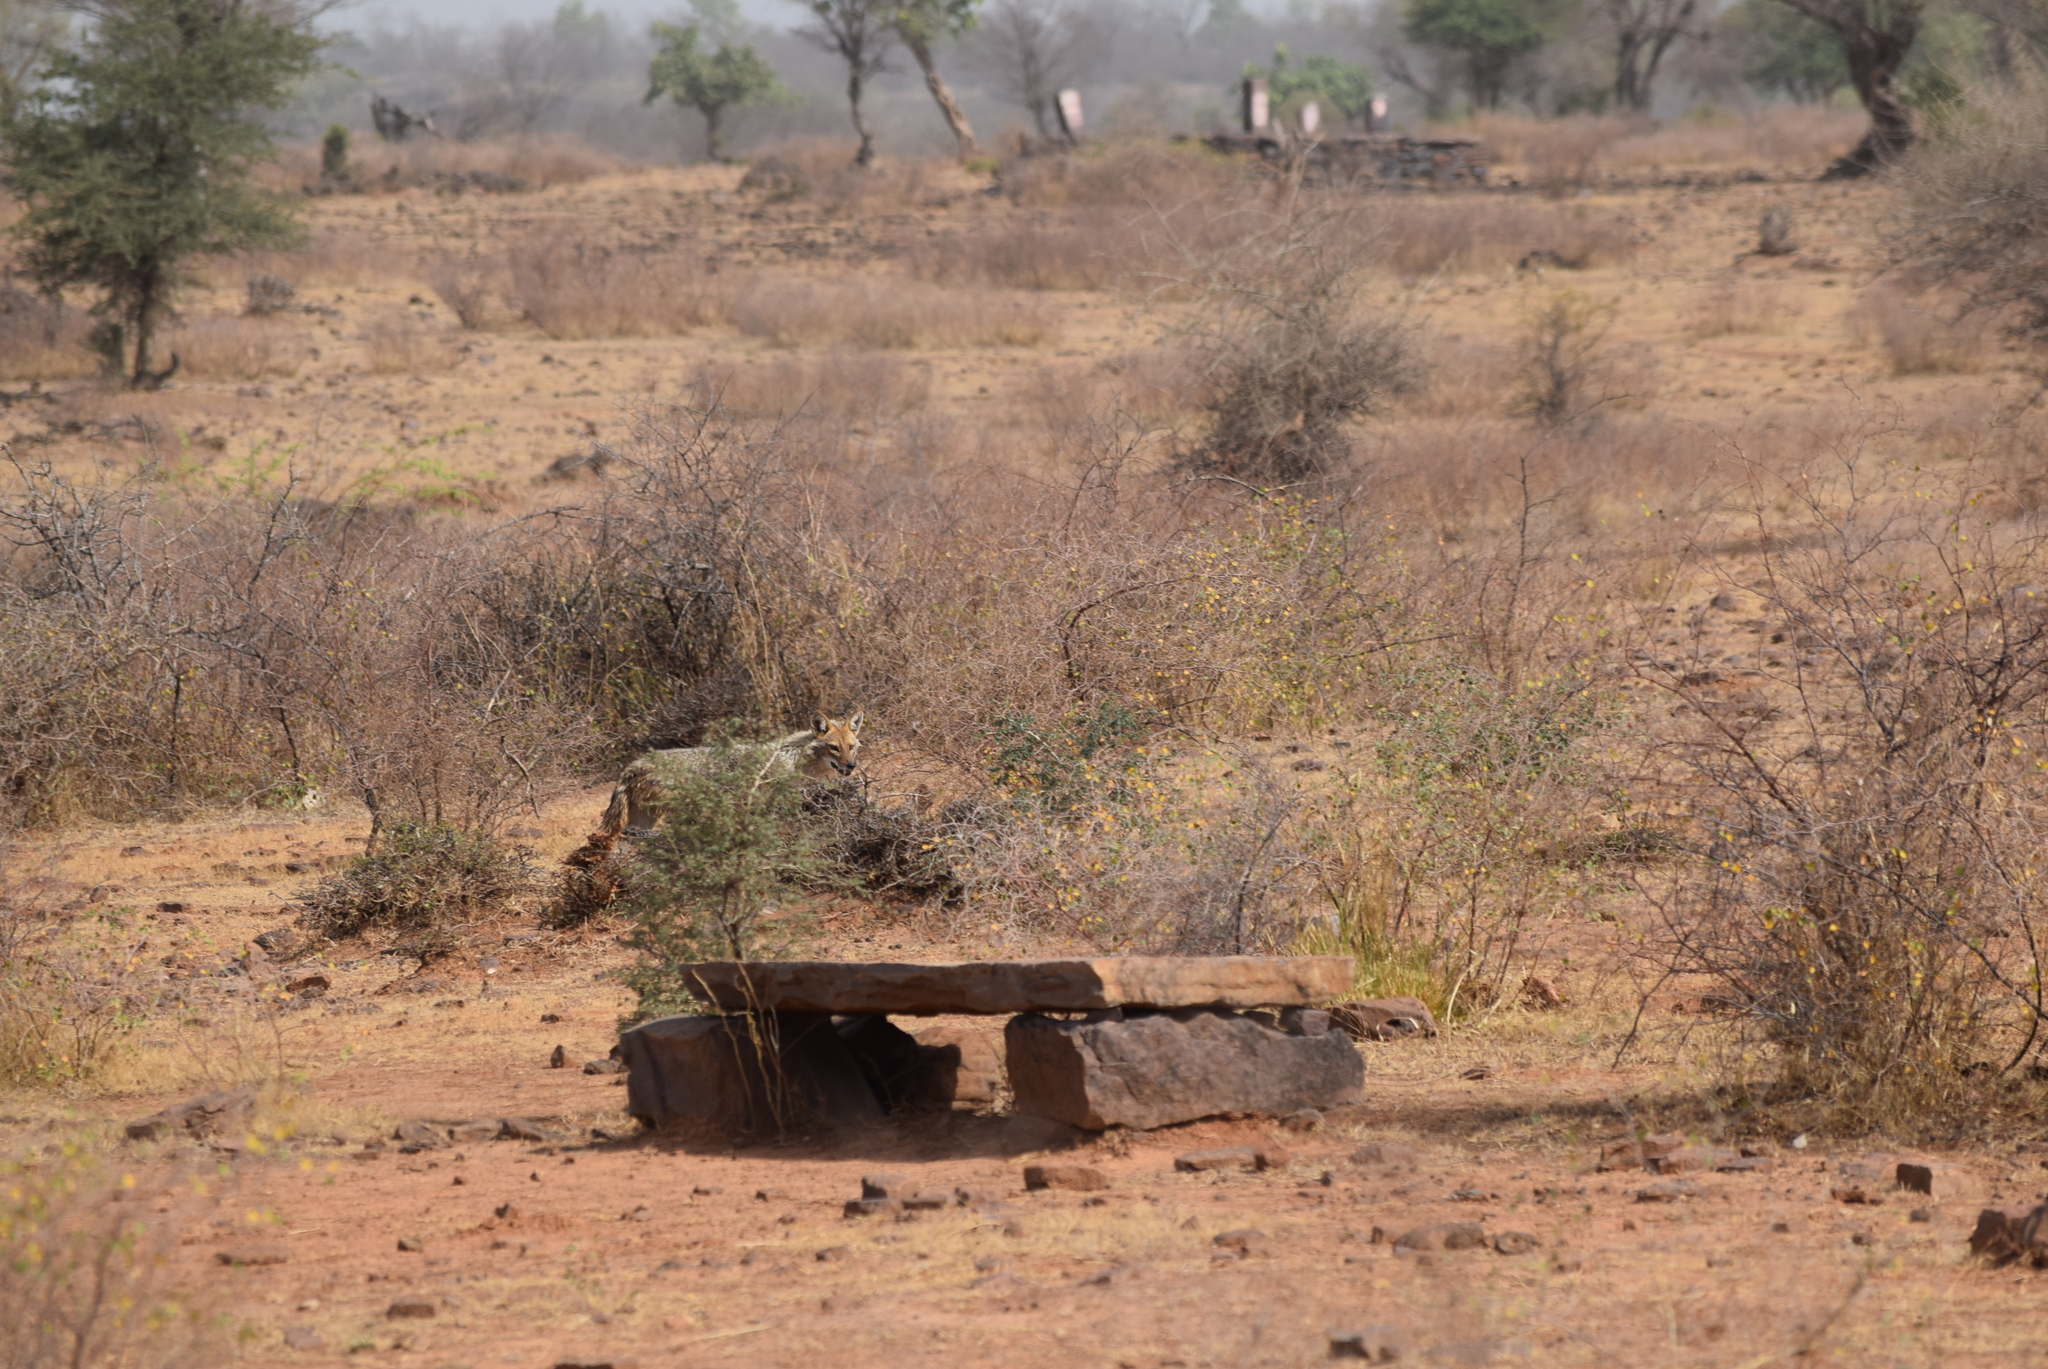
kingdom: Animalia
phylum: Chordata
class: Mammalia
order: Carnivora
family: Canidae
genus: Canis
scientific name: Canis aureus
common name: Golden jackal
